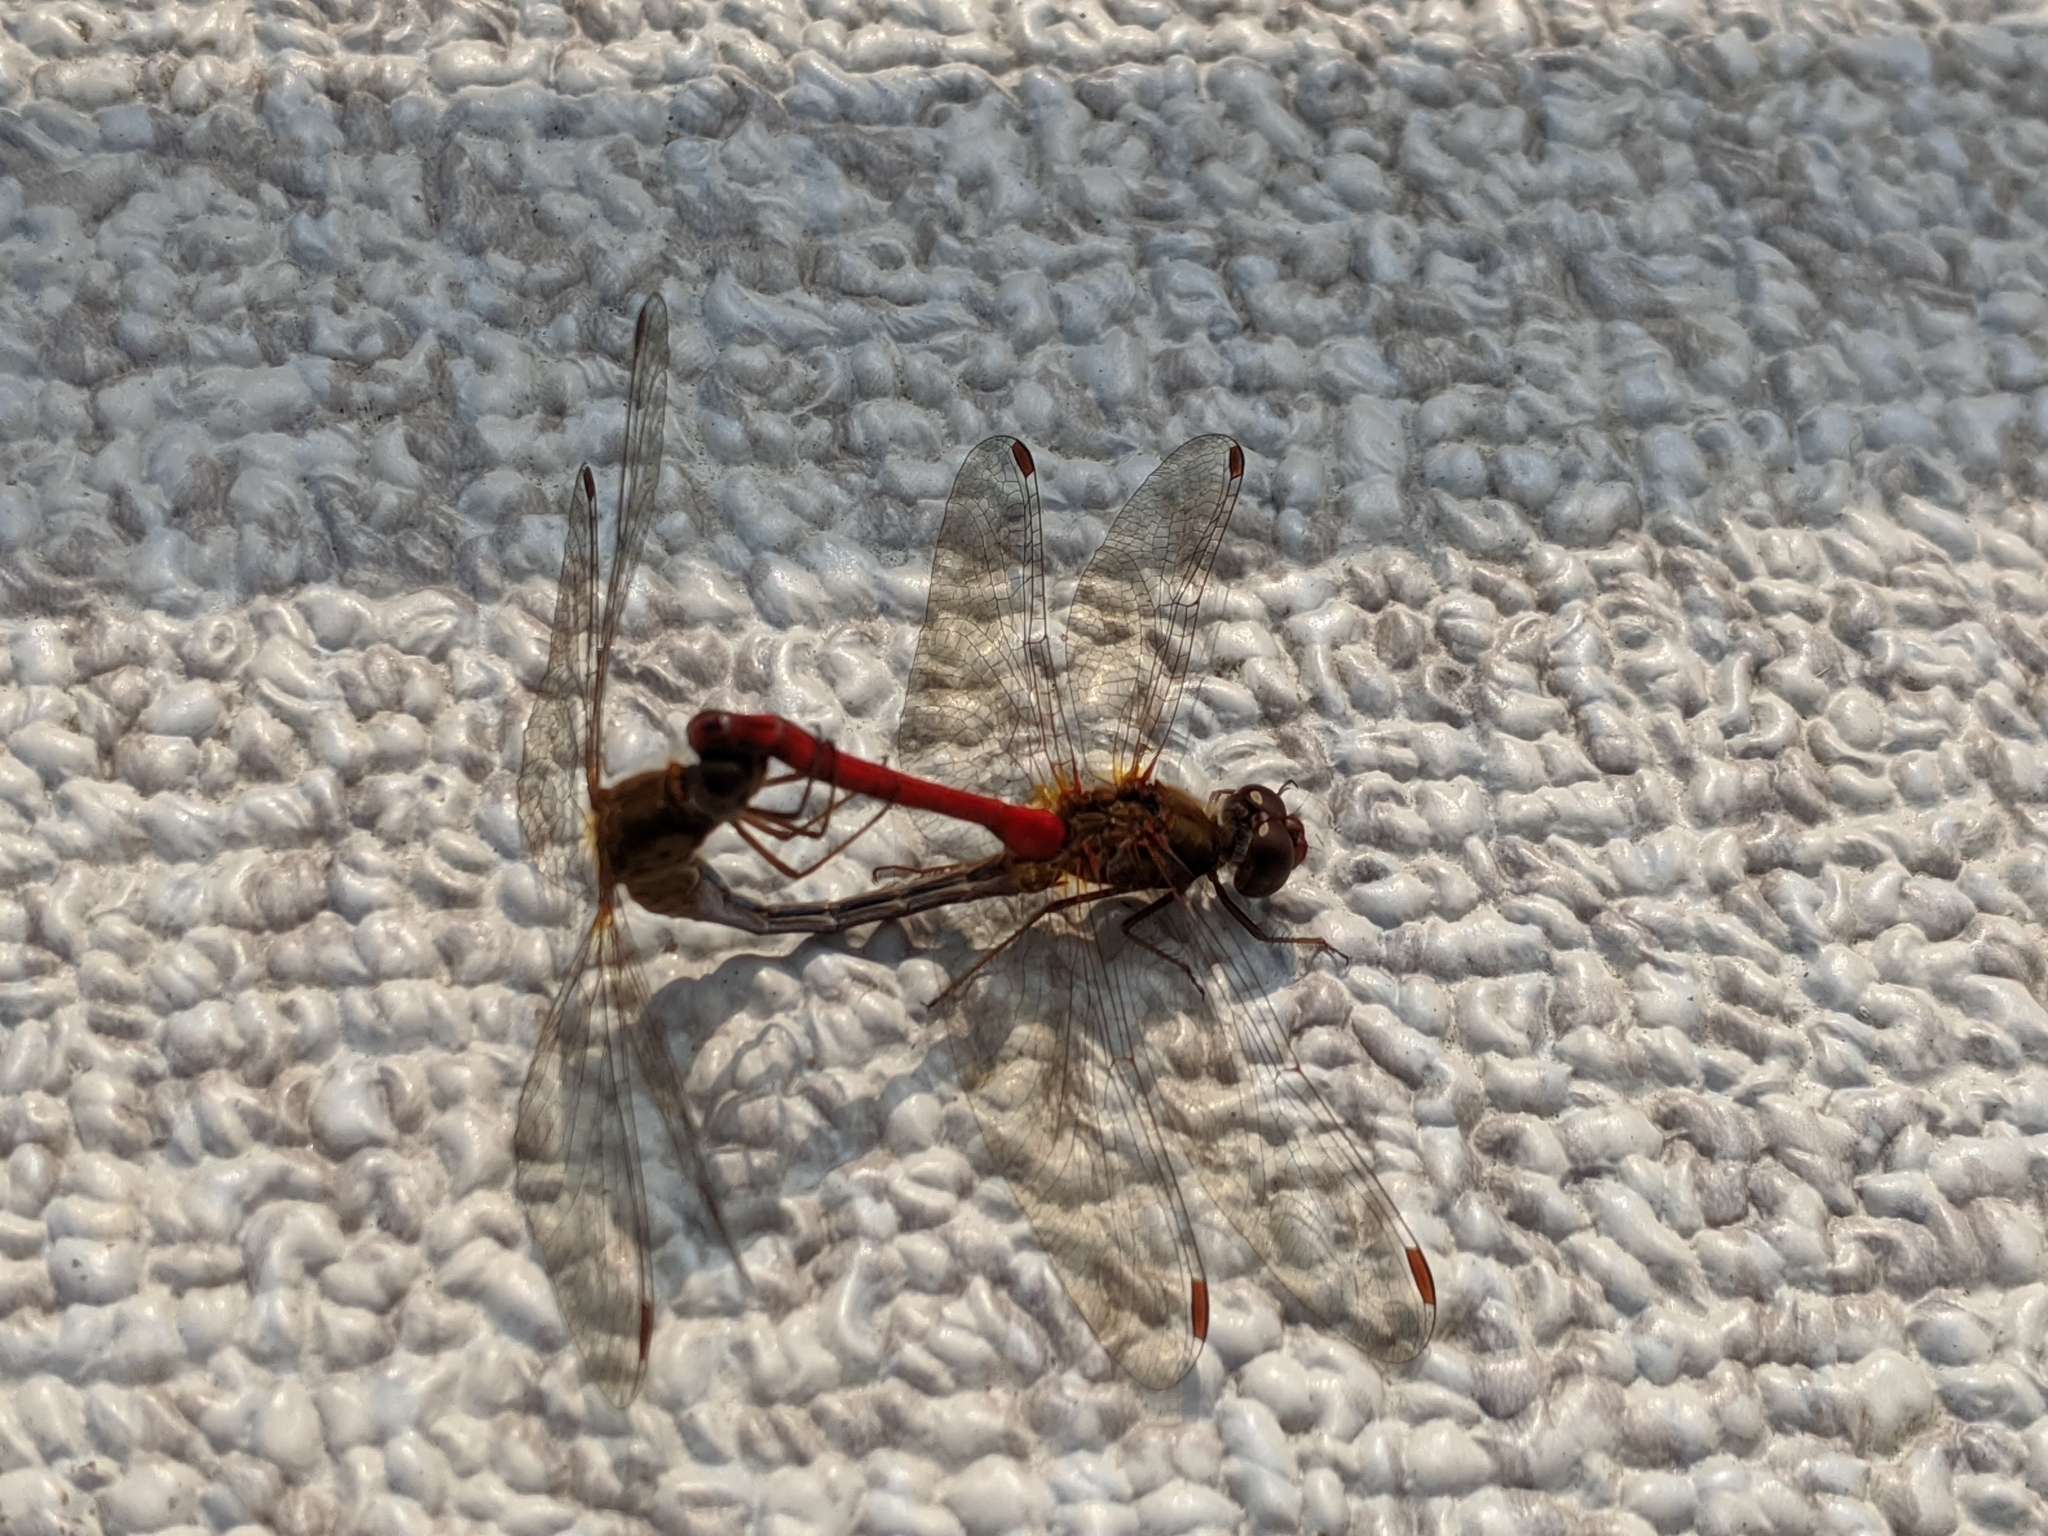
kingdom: Animalia
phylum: Arthropoda
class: Insecta
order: Odonata
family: Libellulidae
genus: Sympetrum
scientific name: Sympetrum vicinum
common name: Autumn meadowhawk
